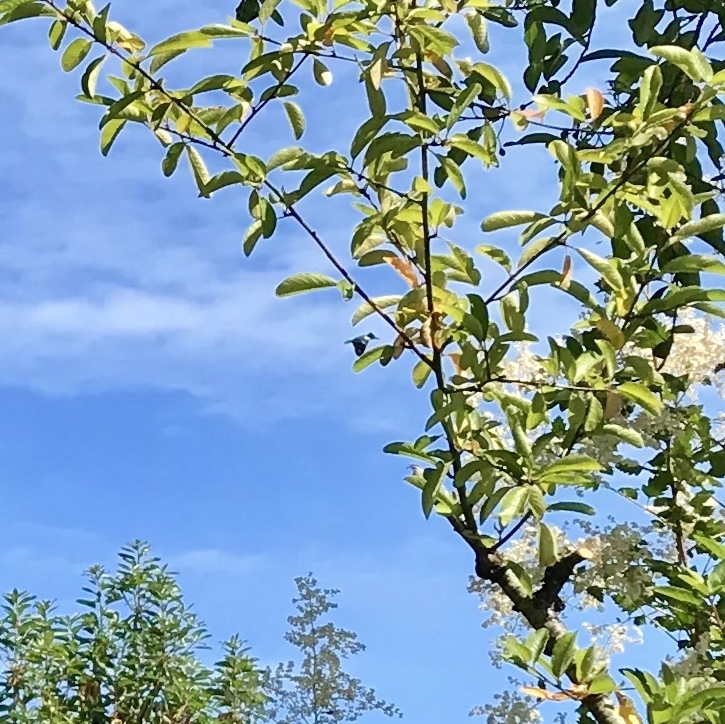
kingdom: Animalia
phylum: Chordata
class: Aves
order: Coraciiformes
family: Alcedinidae
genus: Megaceryle
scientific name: Megaceryle alcyon
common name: Belted kingfisher
